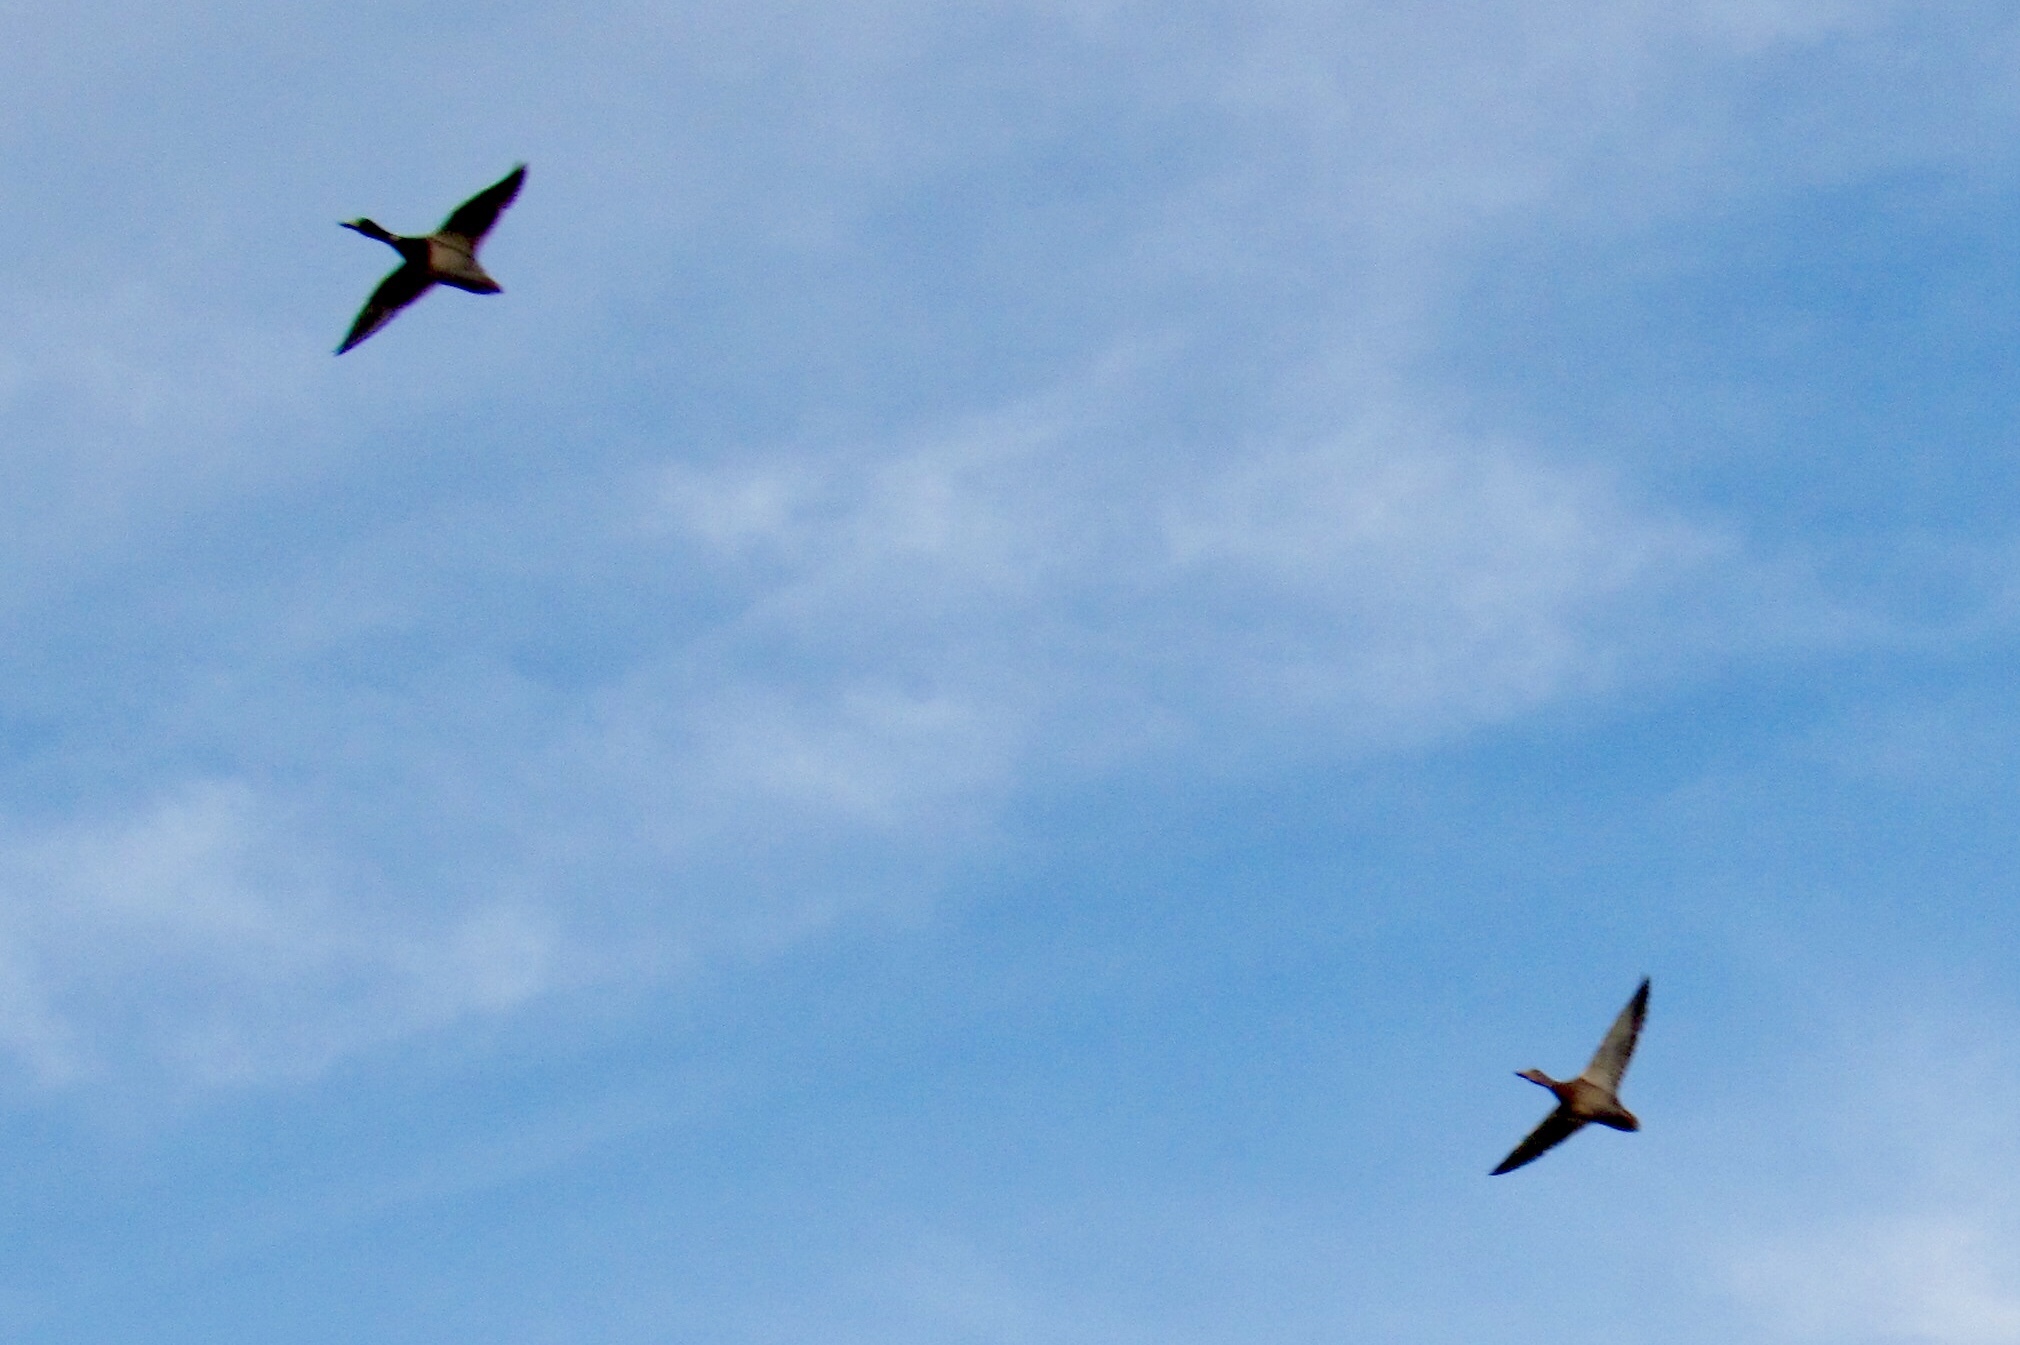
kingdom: Animalia
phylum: Chordata
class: Aves
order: Anseriformes
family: Anatidae
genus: Anas
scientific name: Anas platyrhynchos
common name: Mallard
